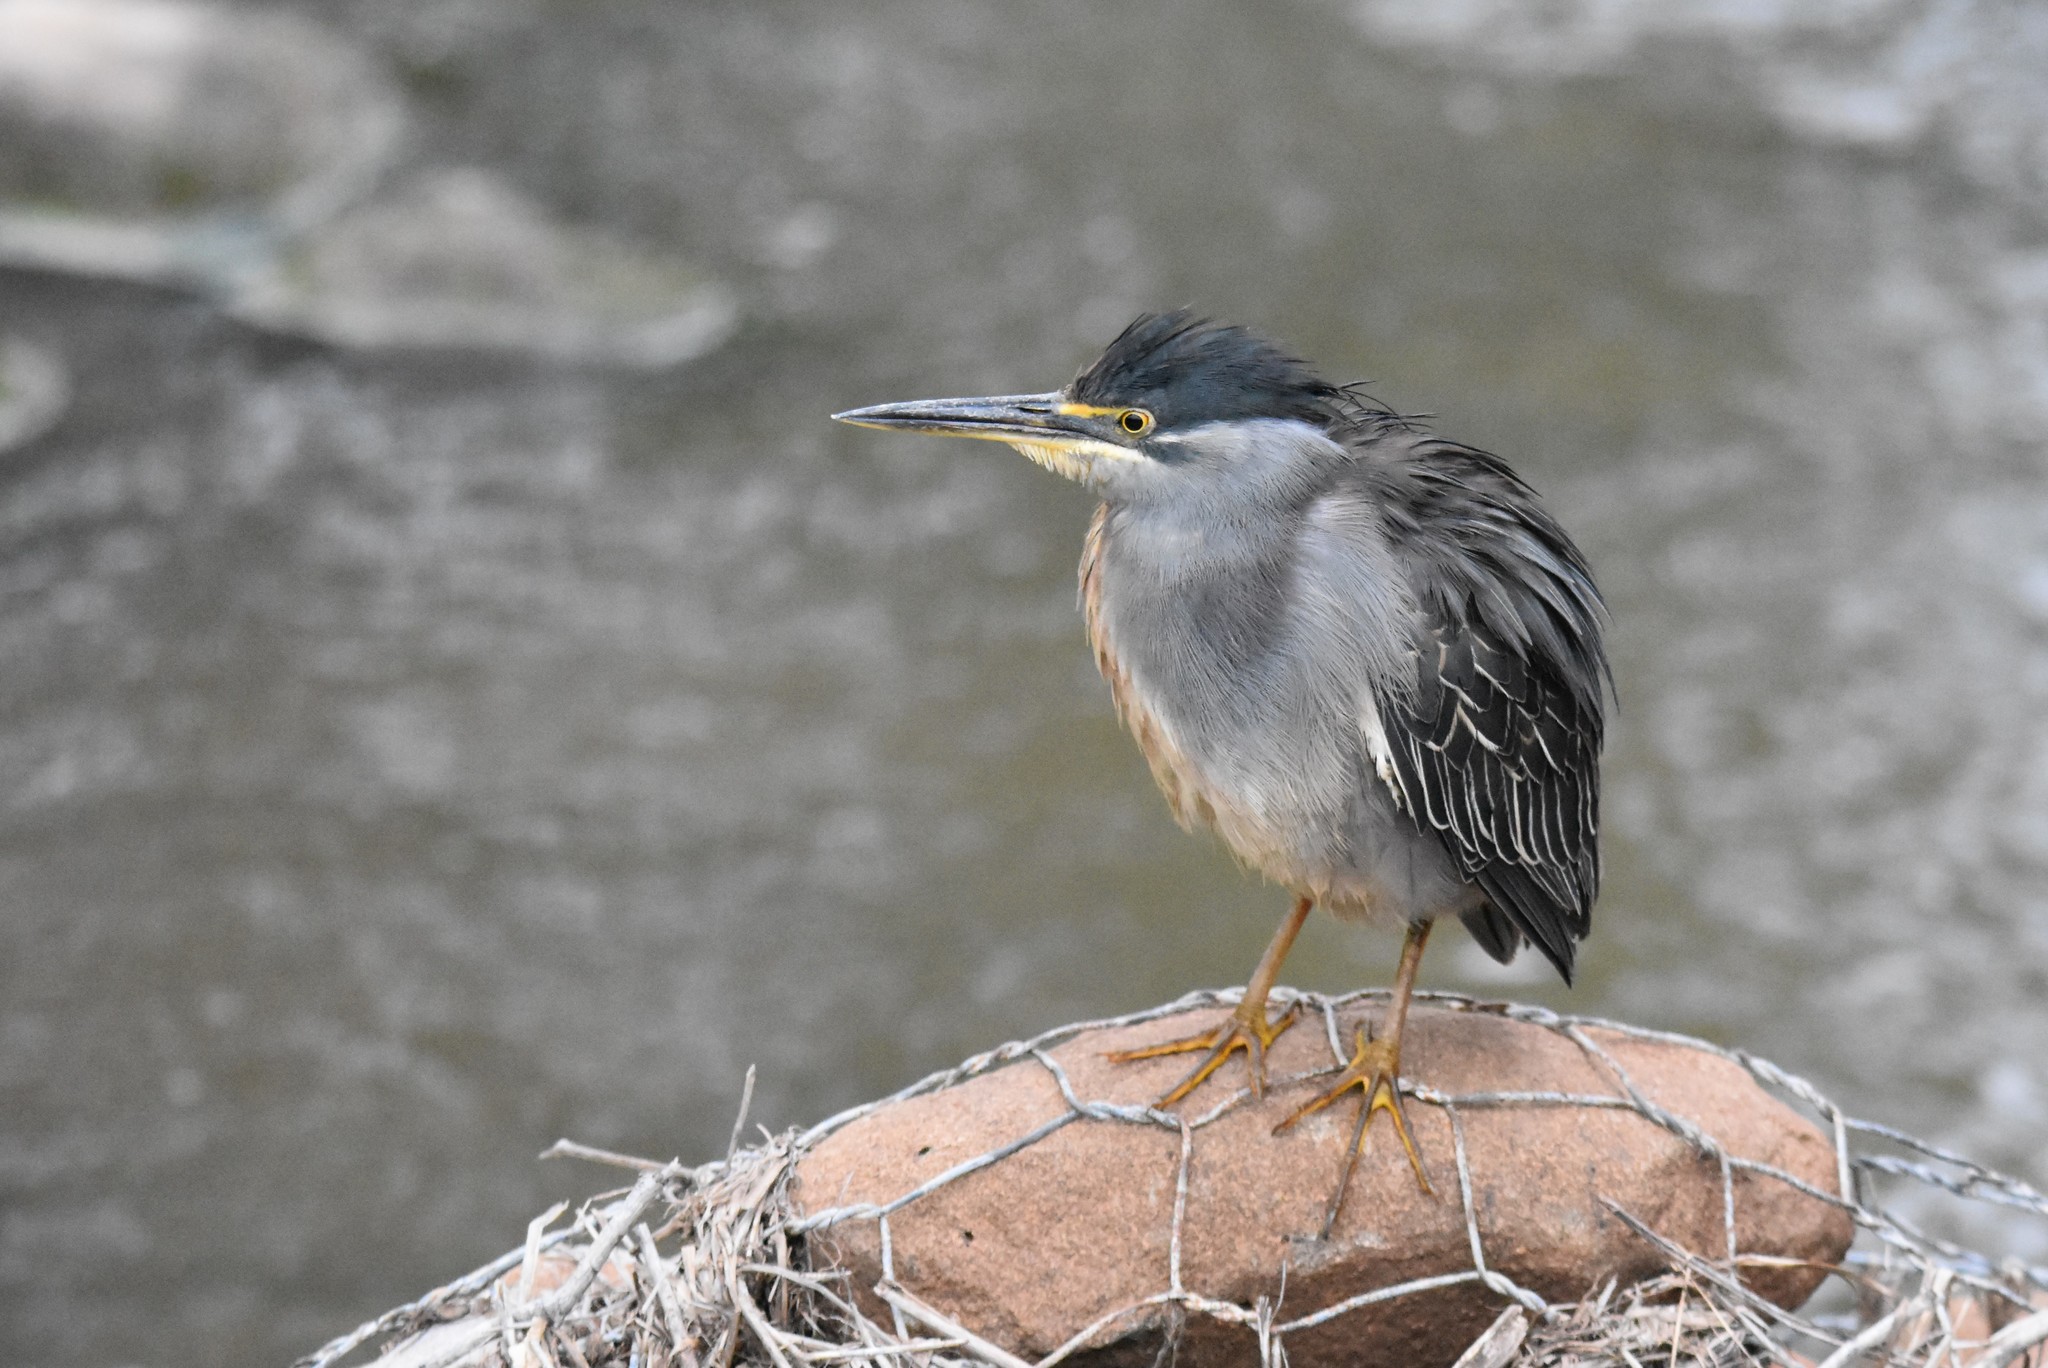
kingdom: Animalia
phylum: Chordata
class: Aves
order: Pelecaniformes
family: Ardeidae
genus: Butorides
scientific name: Butorides striata
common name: Striated heron
